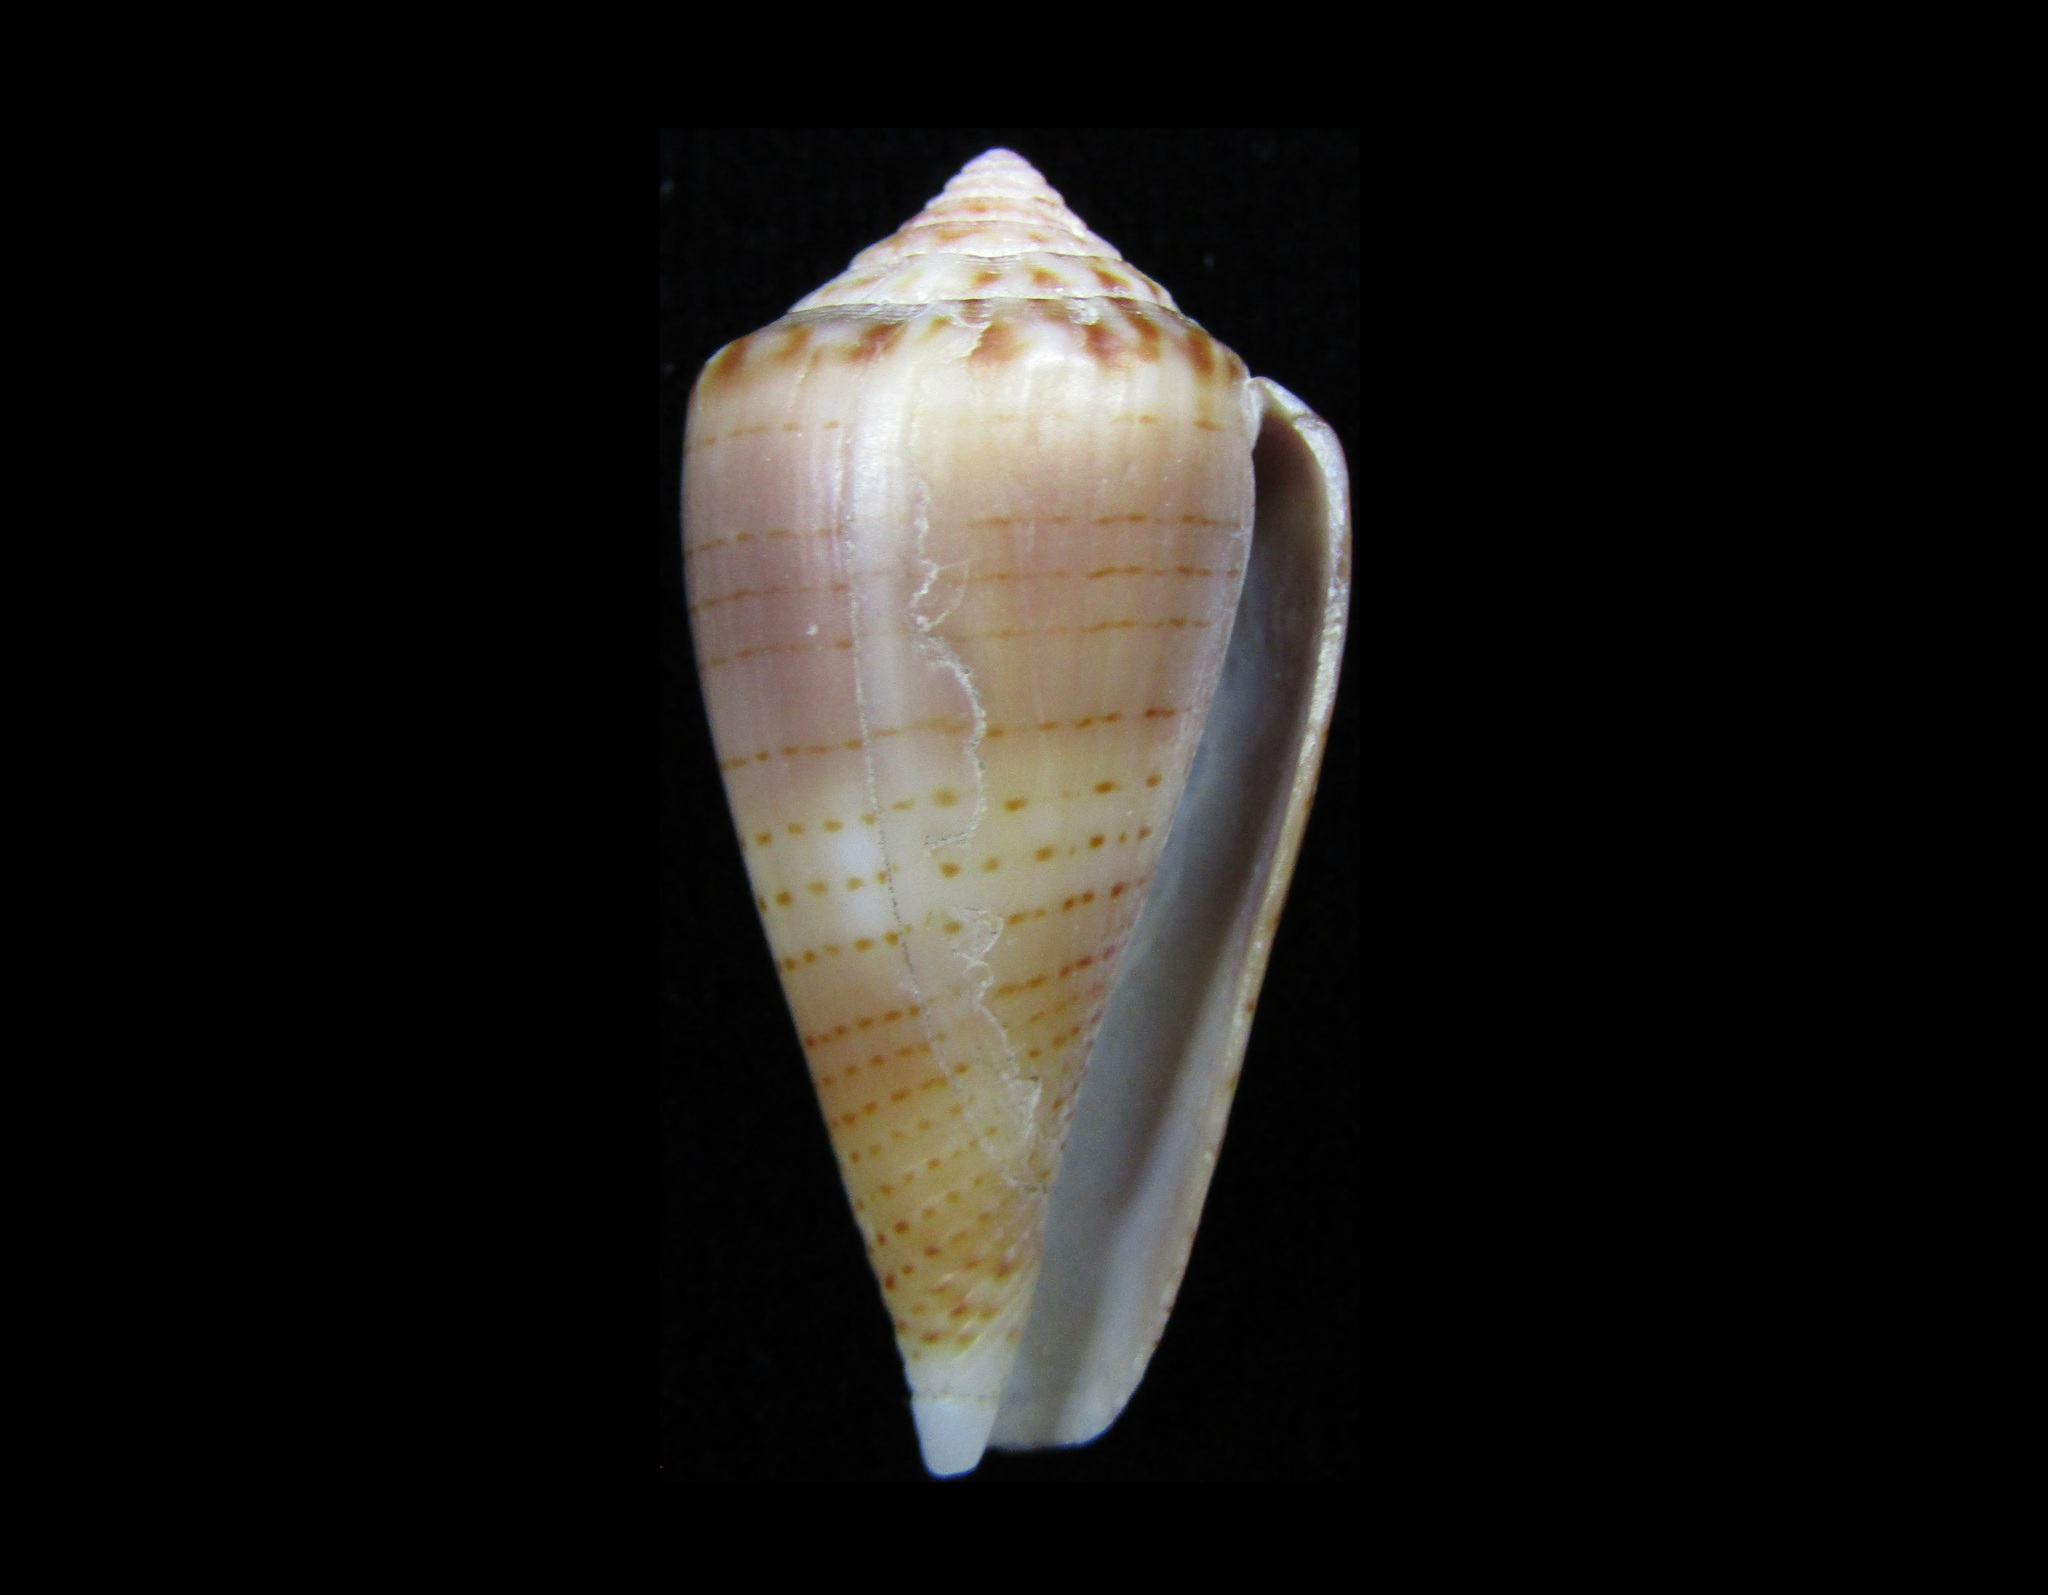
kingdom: Animalia
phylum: Mollusca
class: Gastropoda
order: Neogastropoda
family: Conidae
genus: Conus
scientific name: Conus pauperculus
